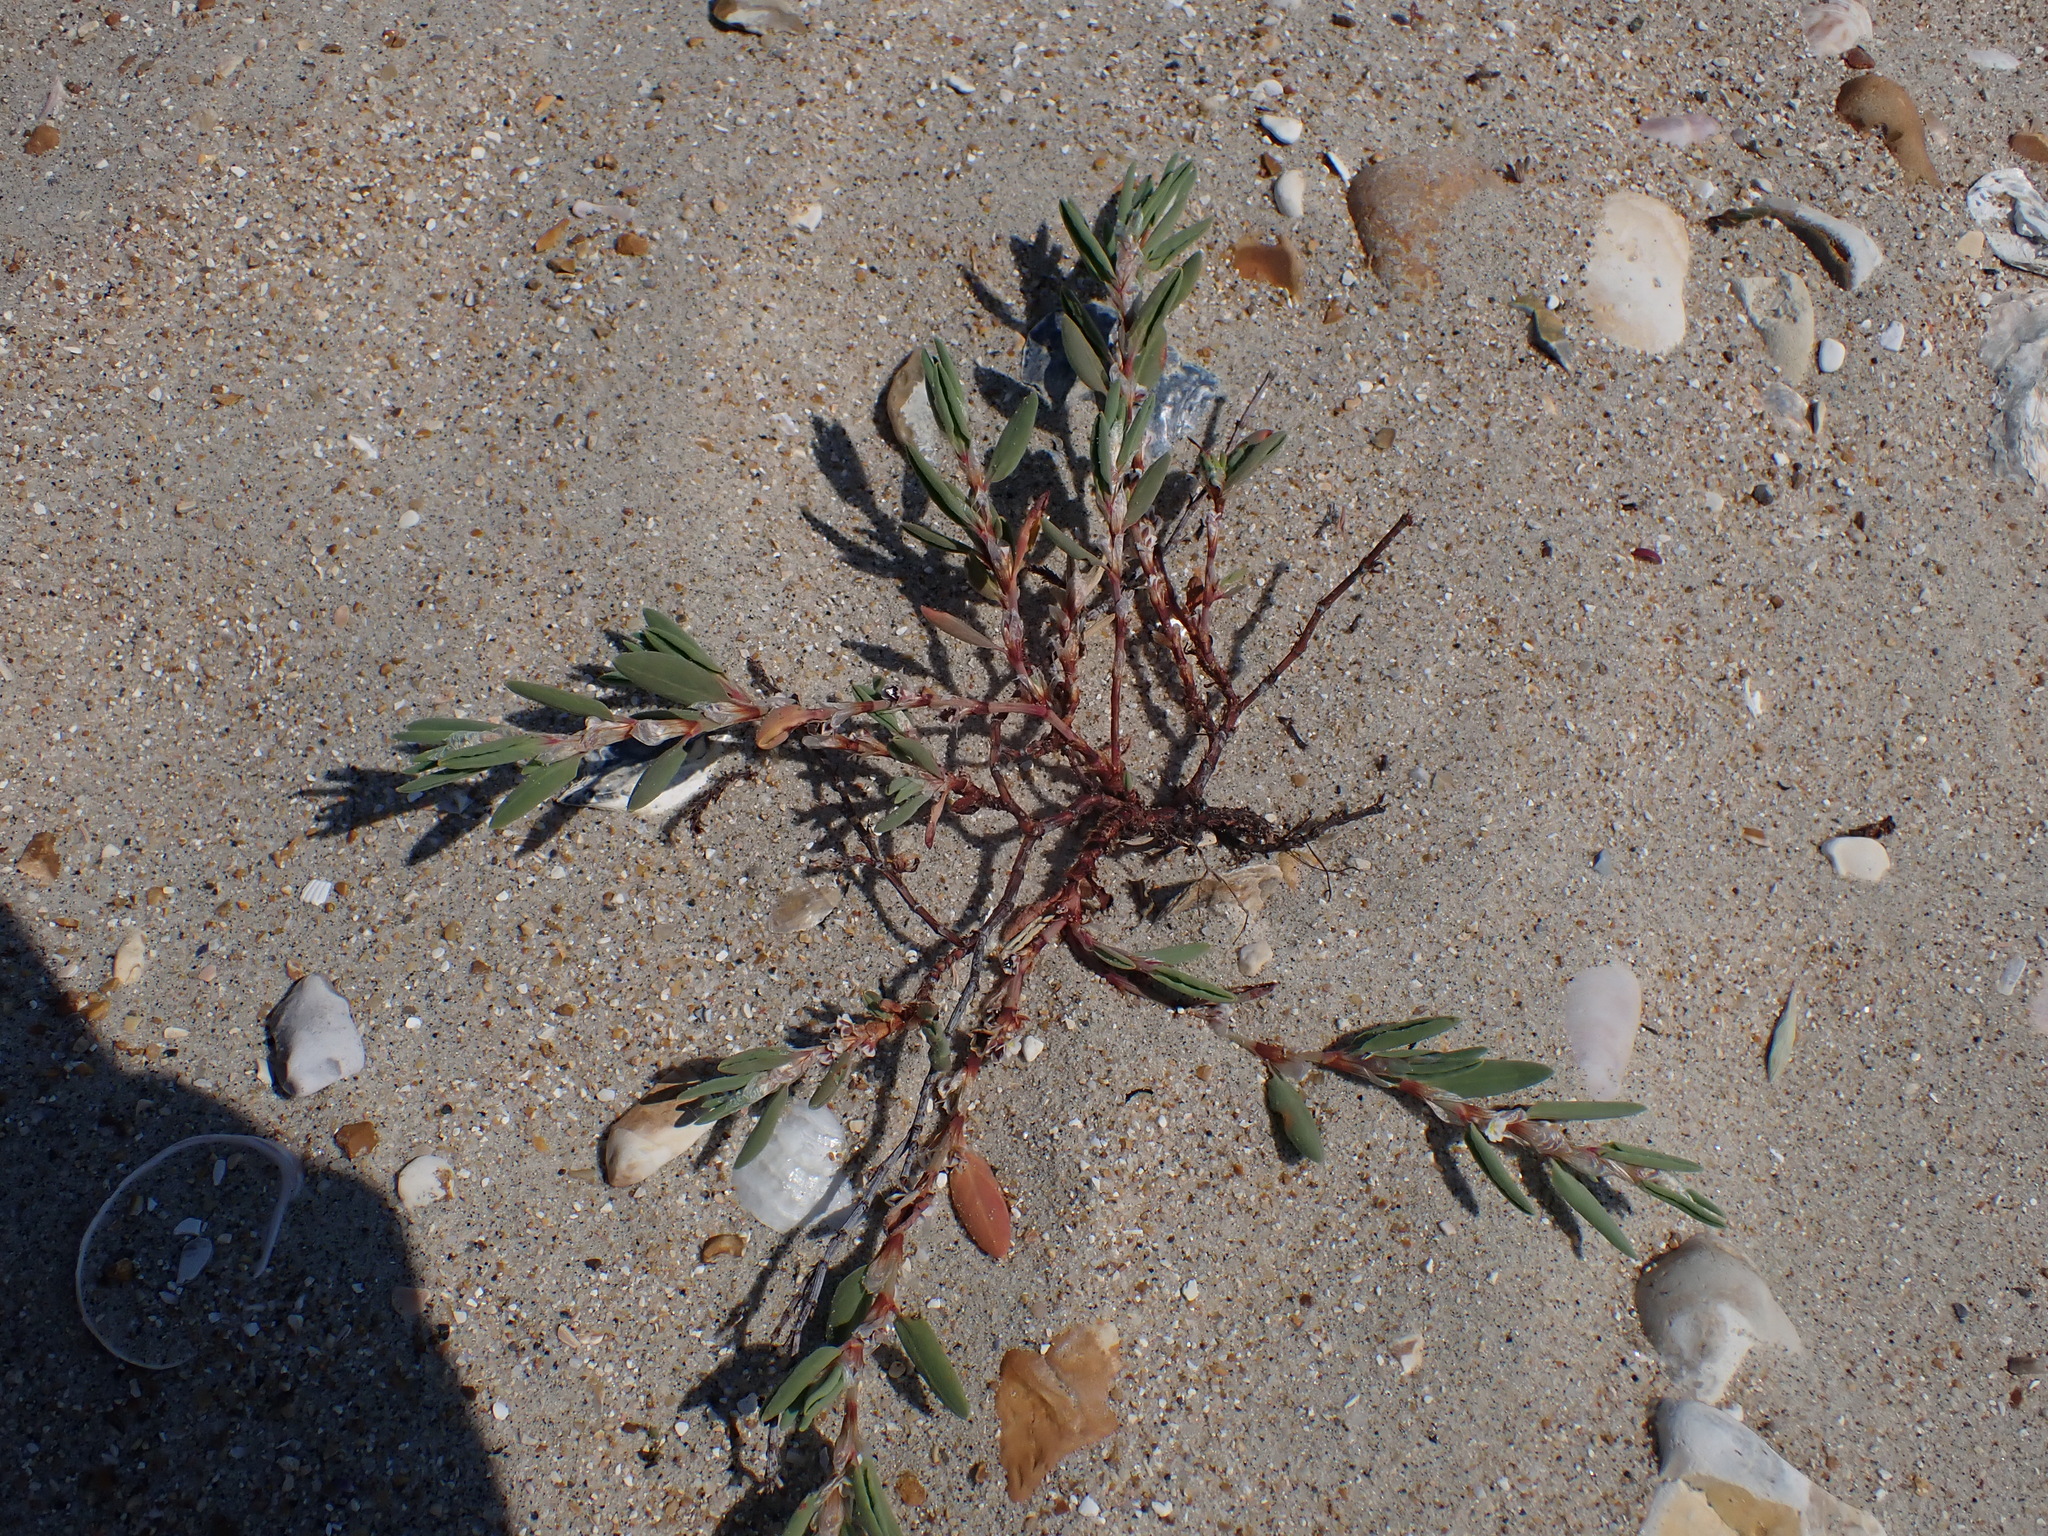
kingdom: Plantae
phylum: Tracheophyta
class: Magnoliopsida
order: Caryophyllales
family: Polygonaceae
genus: Polygonum
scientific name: Polygonum maritimum
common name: Sea knotgrass
